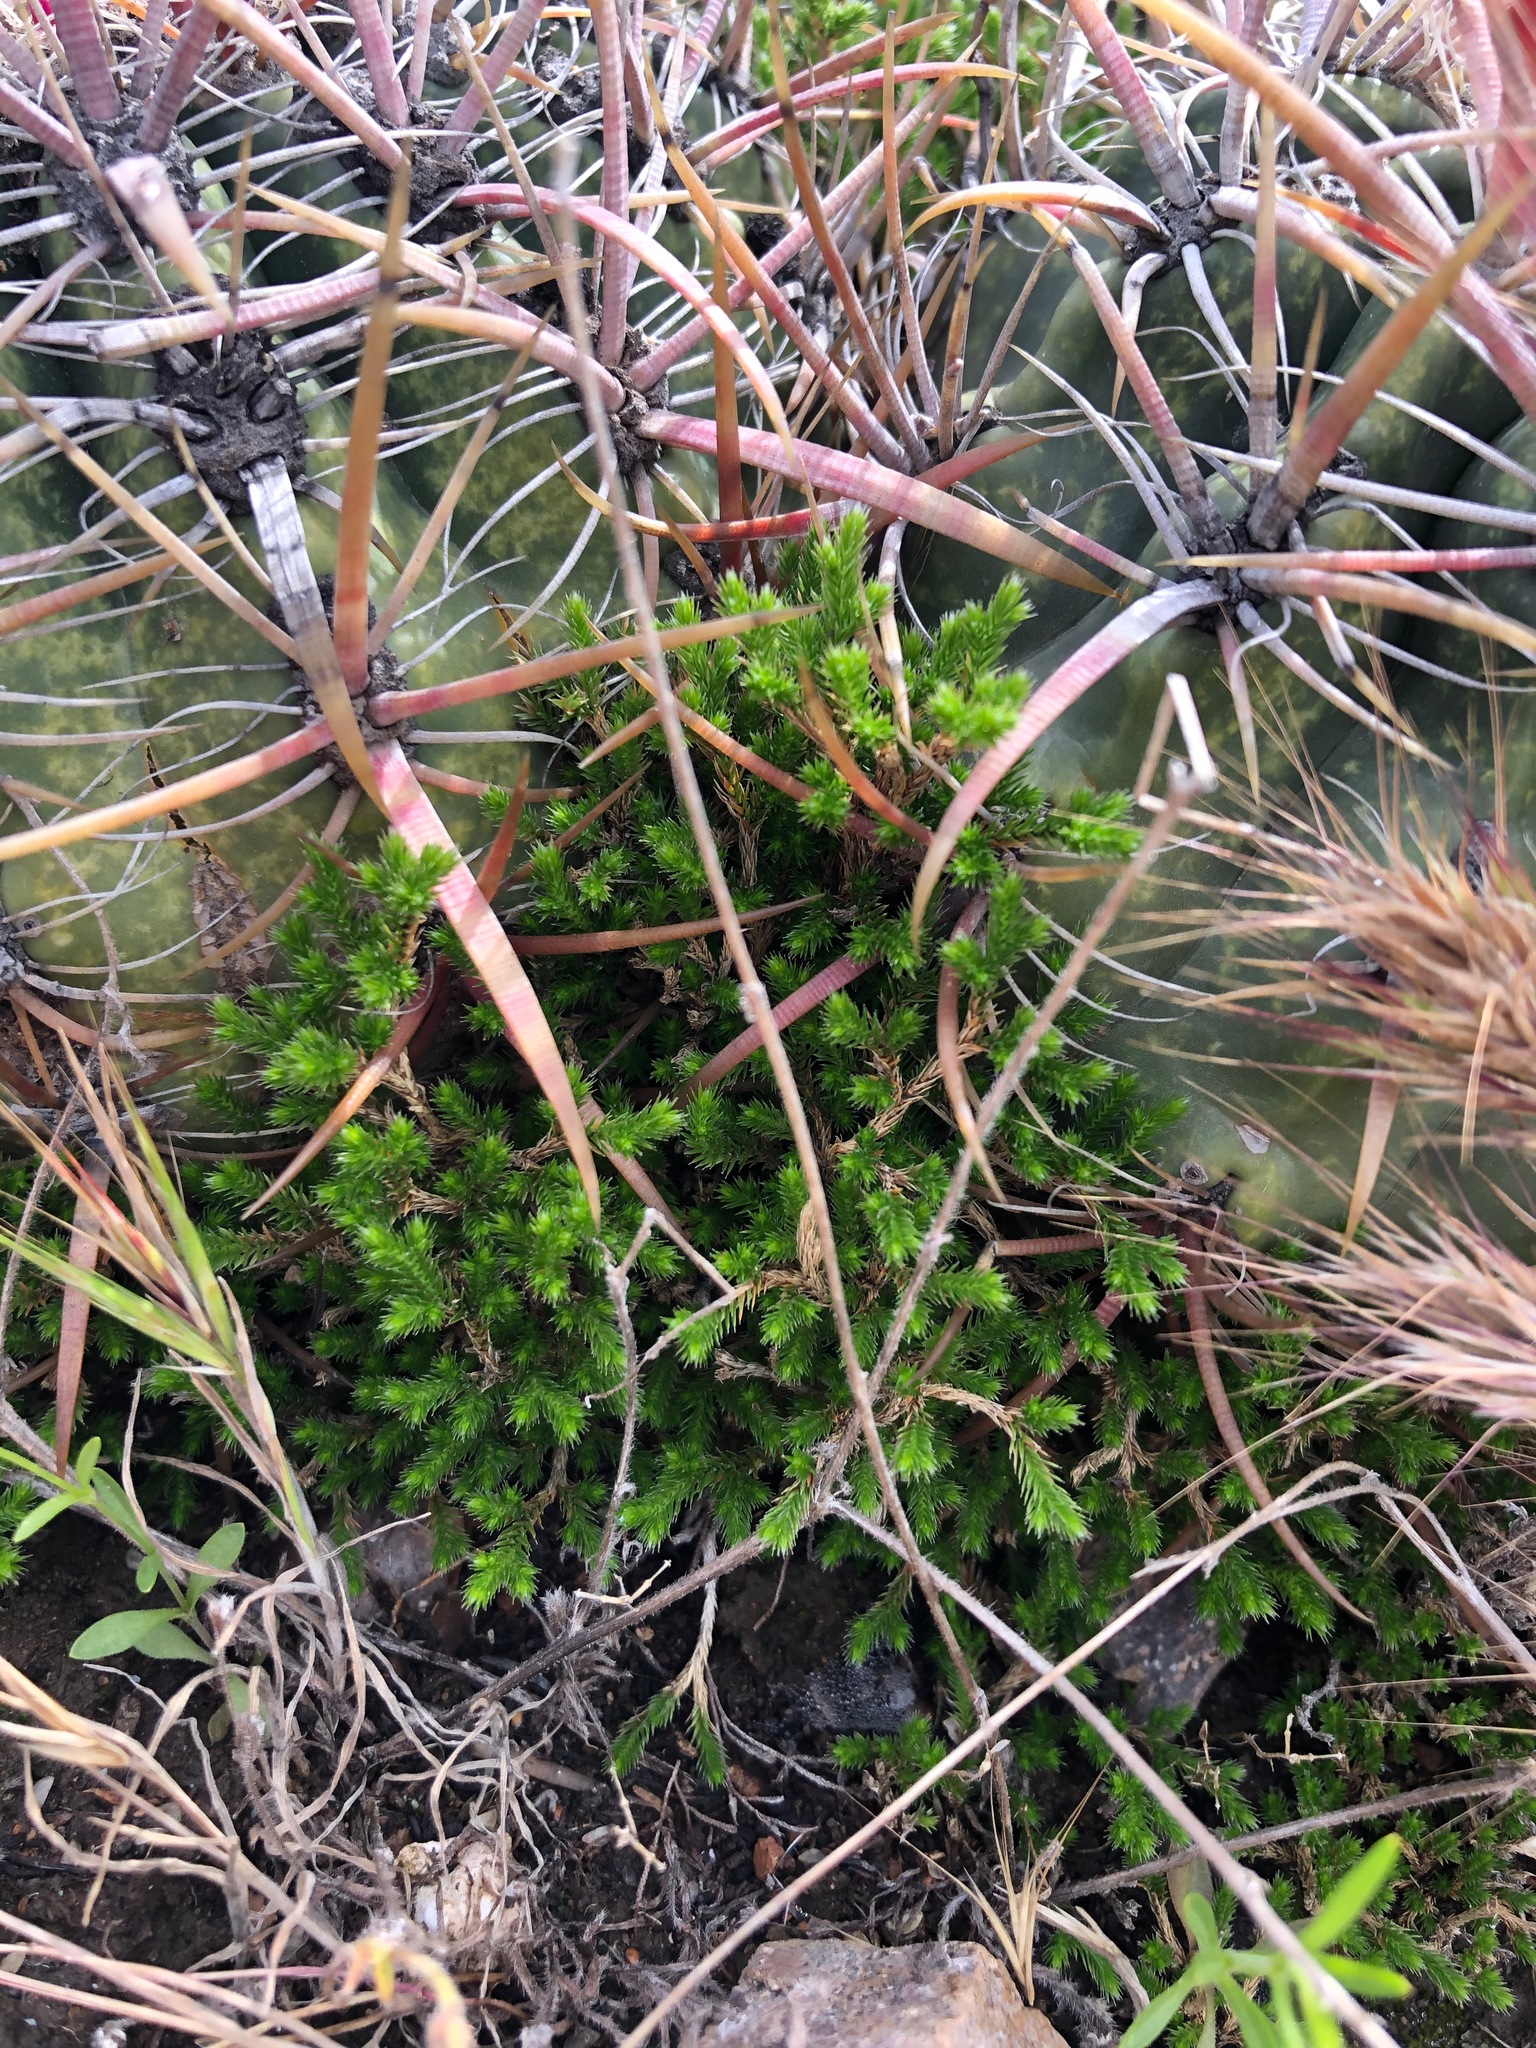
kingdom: Plantae
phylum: Tracheophyta
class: Lycopodiopsida
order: Selaginellales
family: Selaginellaceae
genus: Selaginella
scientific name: Selaginella bigelovii
